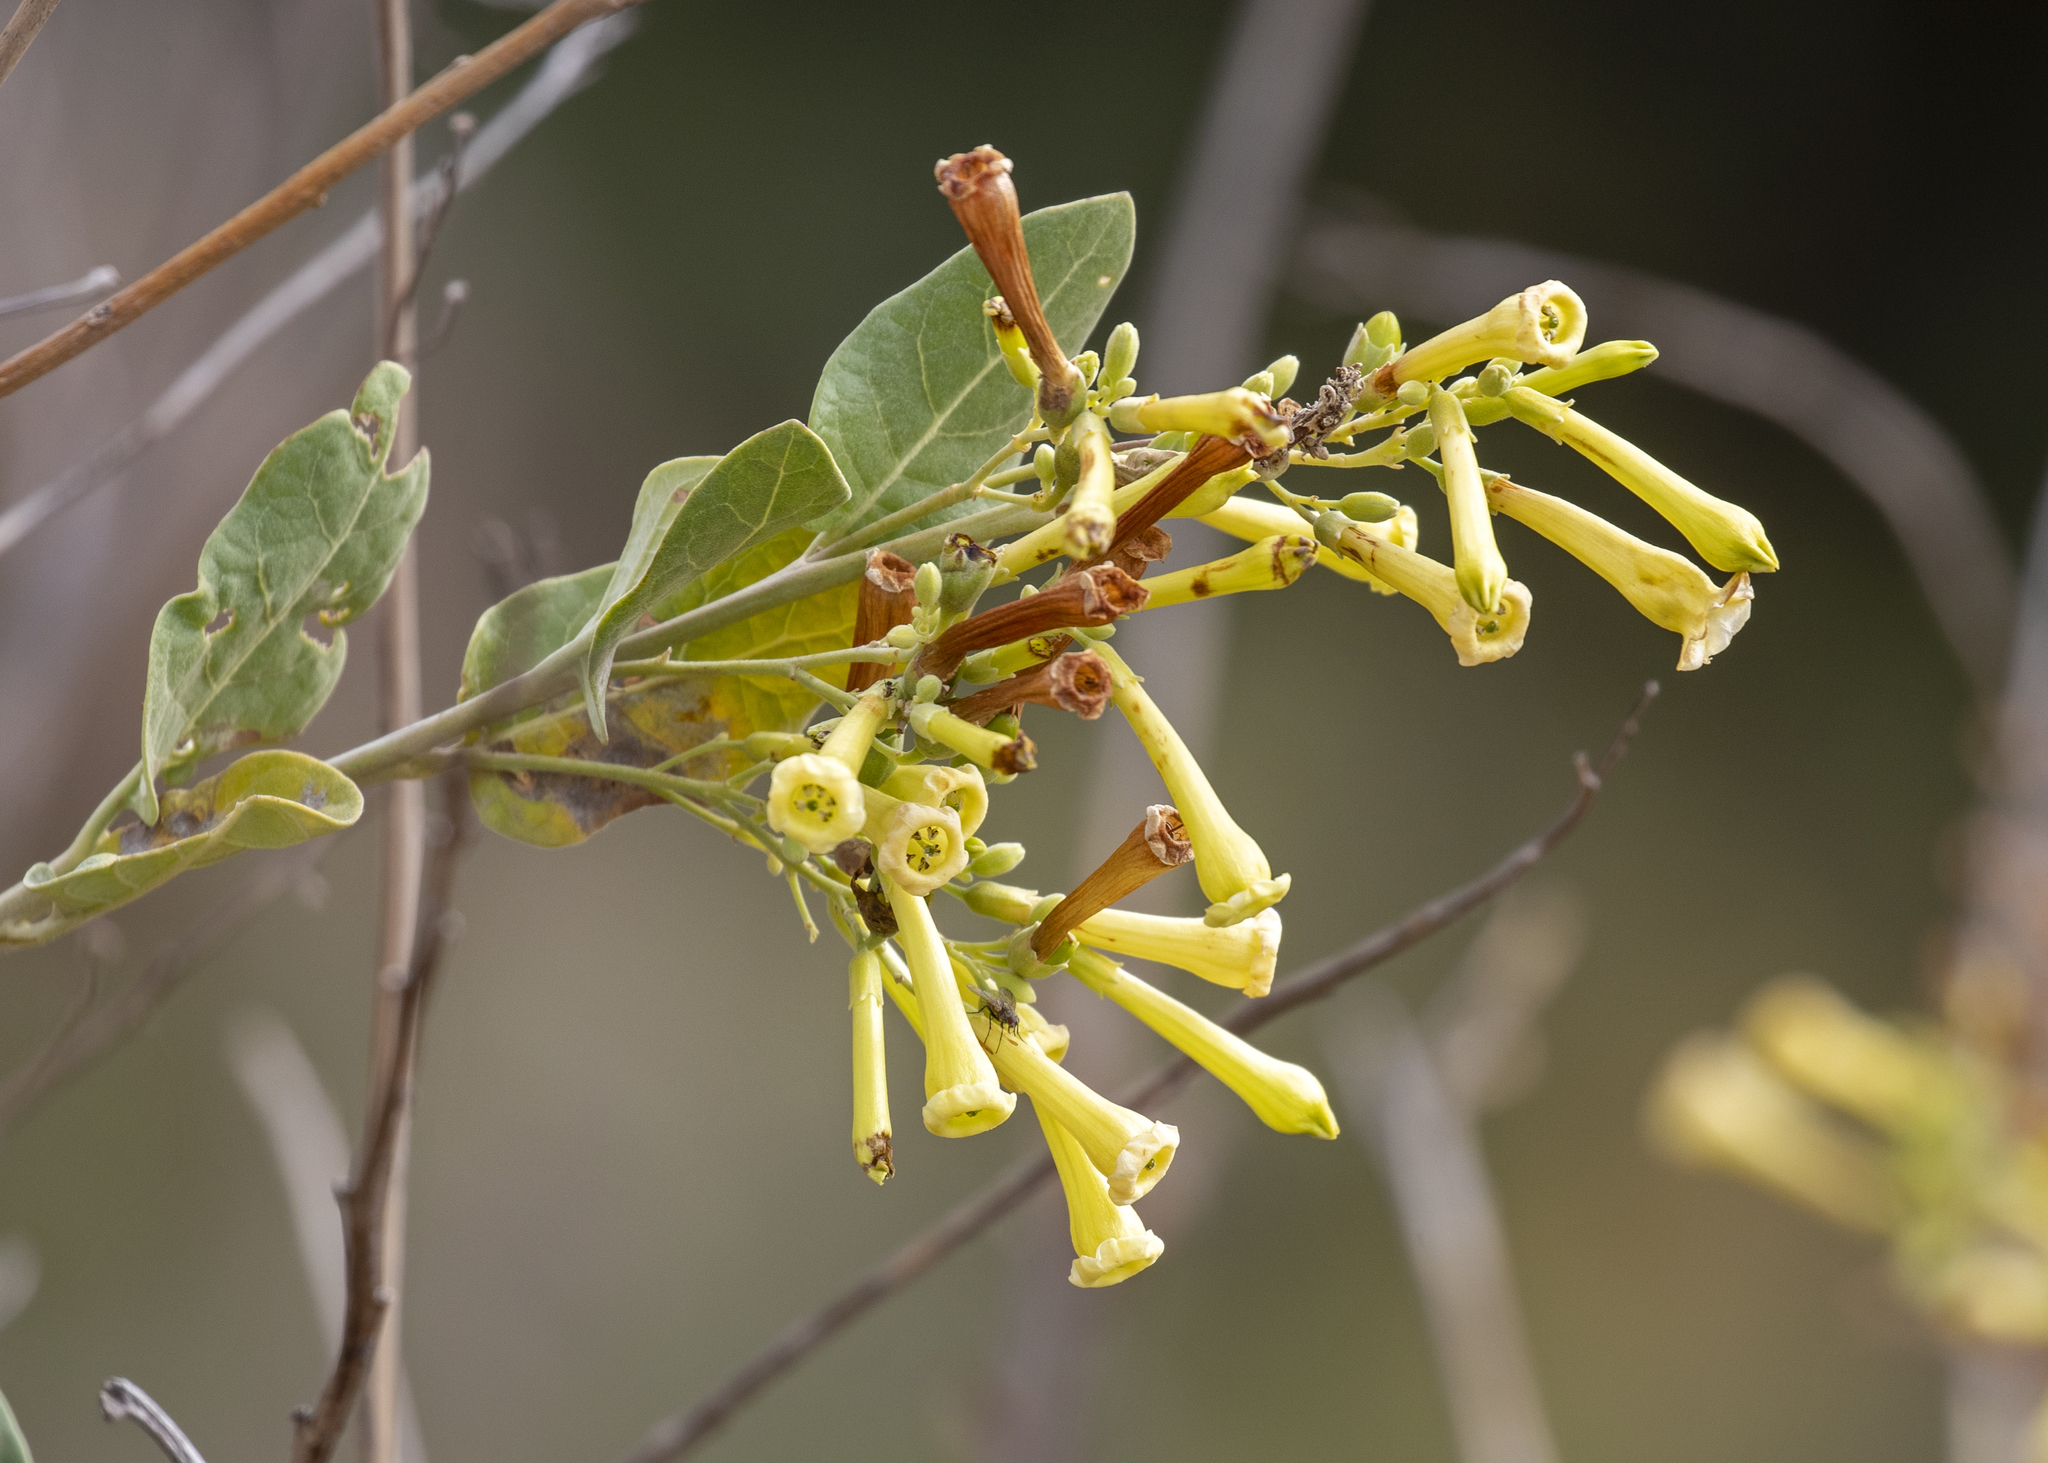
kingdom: Plantae
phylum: Tracheophyta
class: Magnoliopsida
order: Solanales
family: Solanaceae
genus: Nicotiana
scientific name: Nicotiana glauca
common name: Tree tobacco
